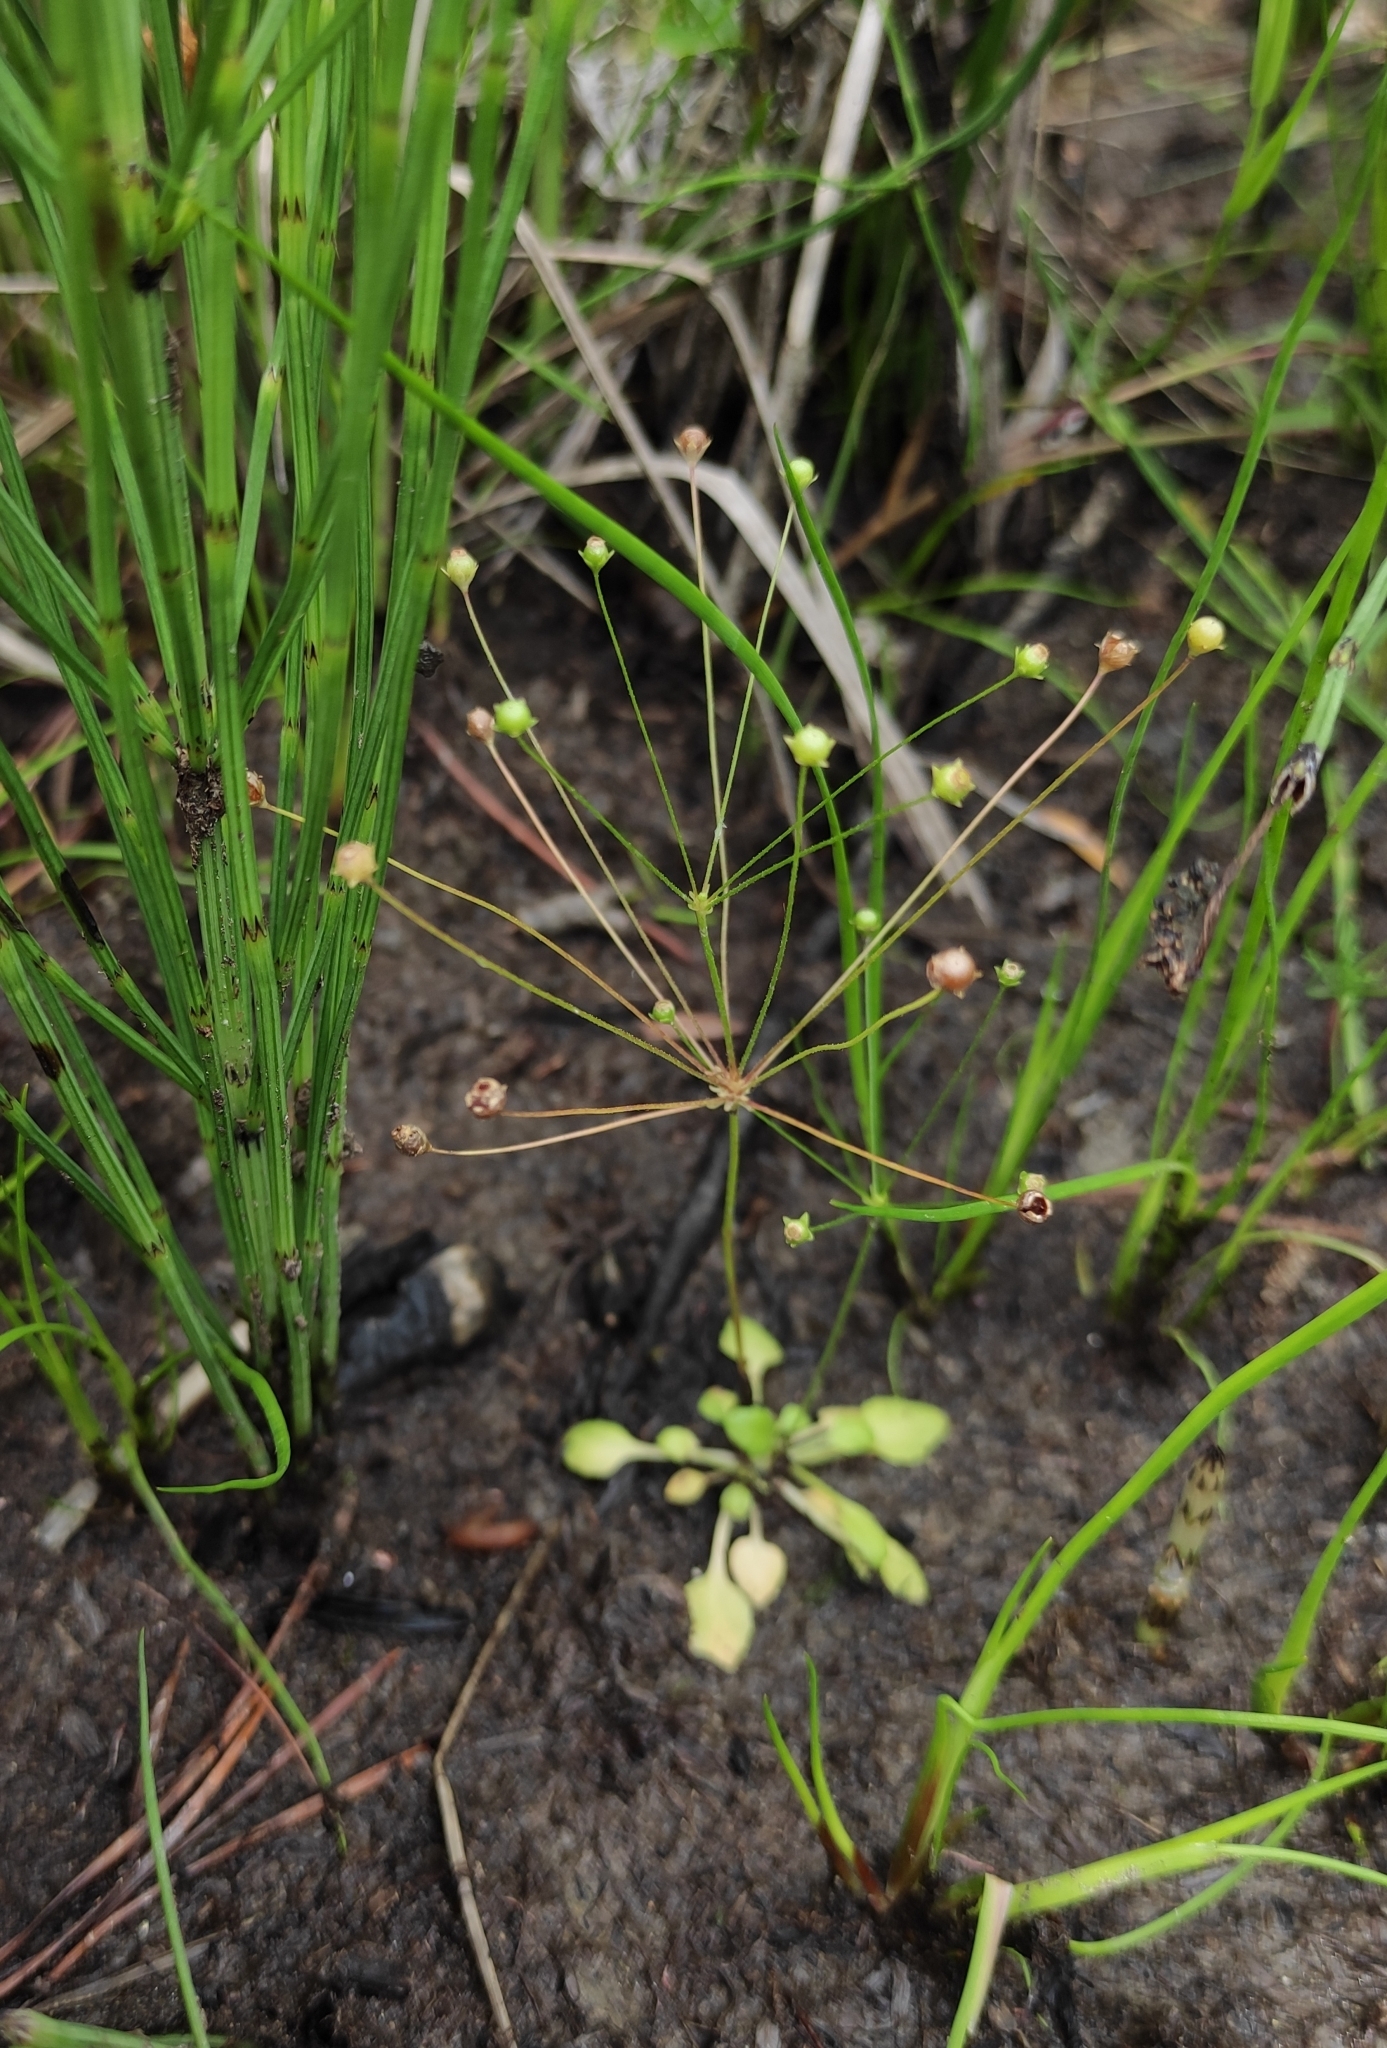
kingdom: Plantae
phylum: Tracheophyta
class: Magnoliopsida
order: Ericales
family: Primulaceae
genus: Androsace
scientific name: Androsace filiformis
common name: Filiform rock jasmine
